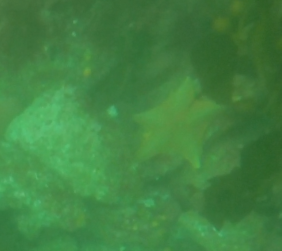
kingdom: Animalia
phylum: Echinodermata
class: Asteroidea
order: Valvatida
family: Asterinidae
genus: Patiria
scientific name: Patiria miniata
